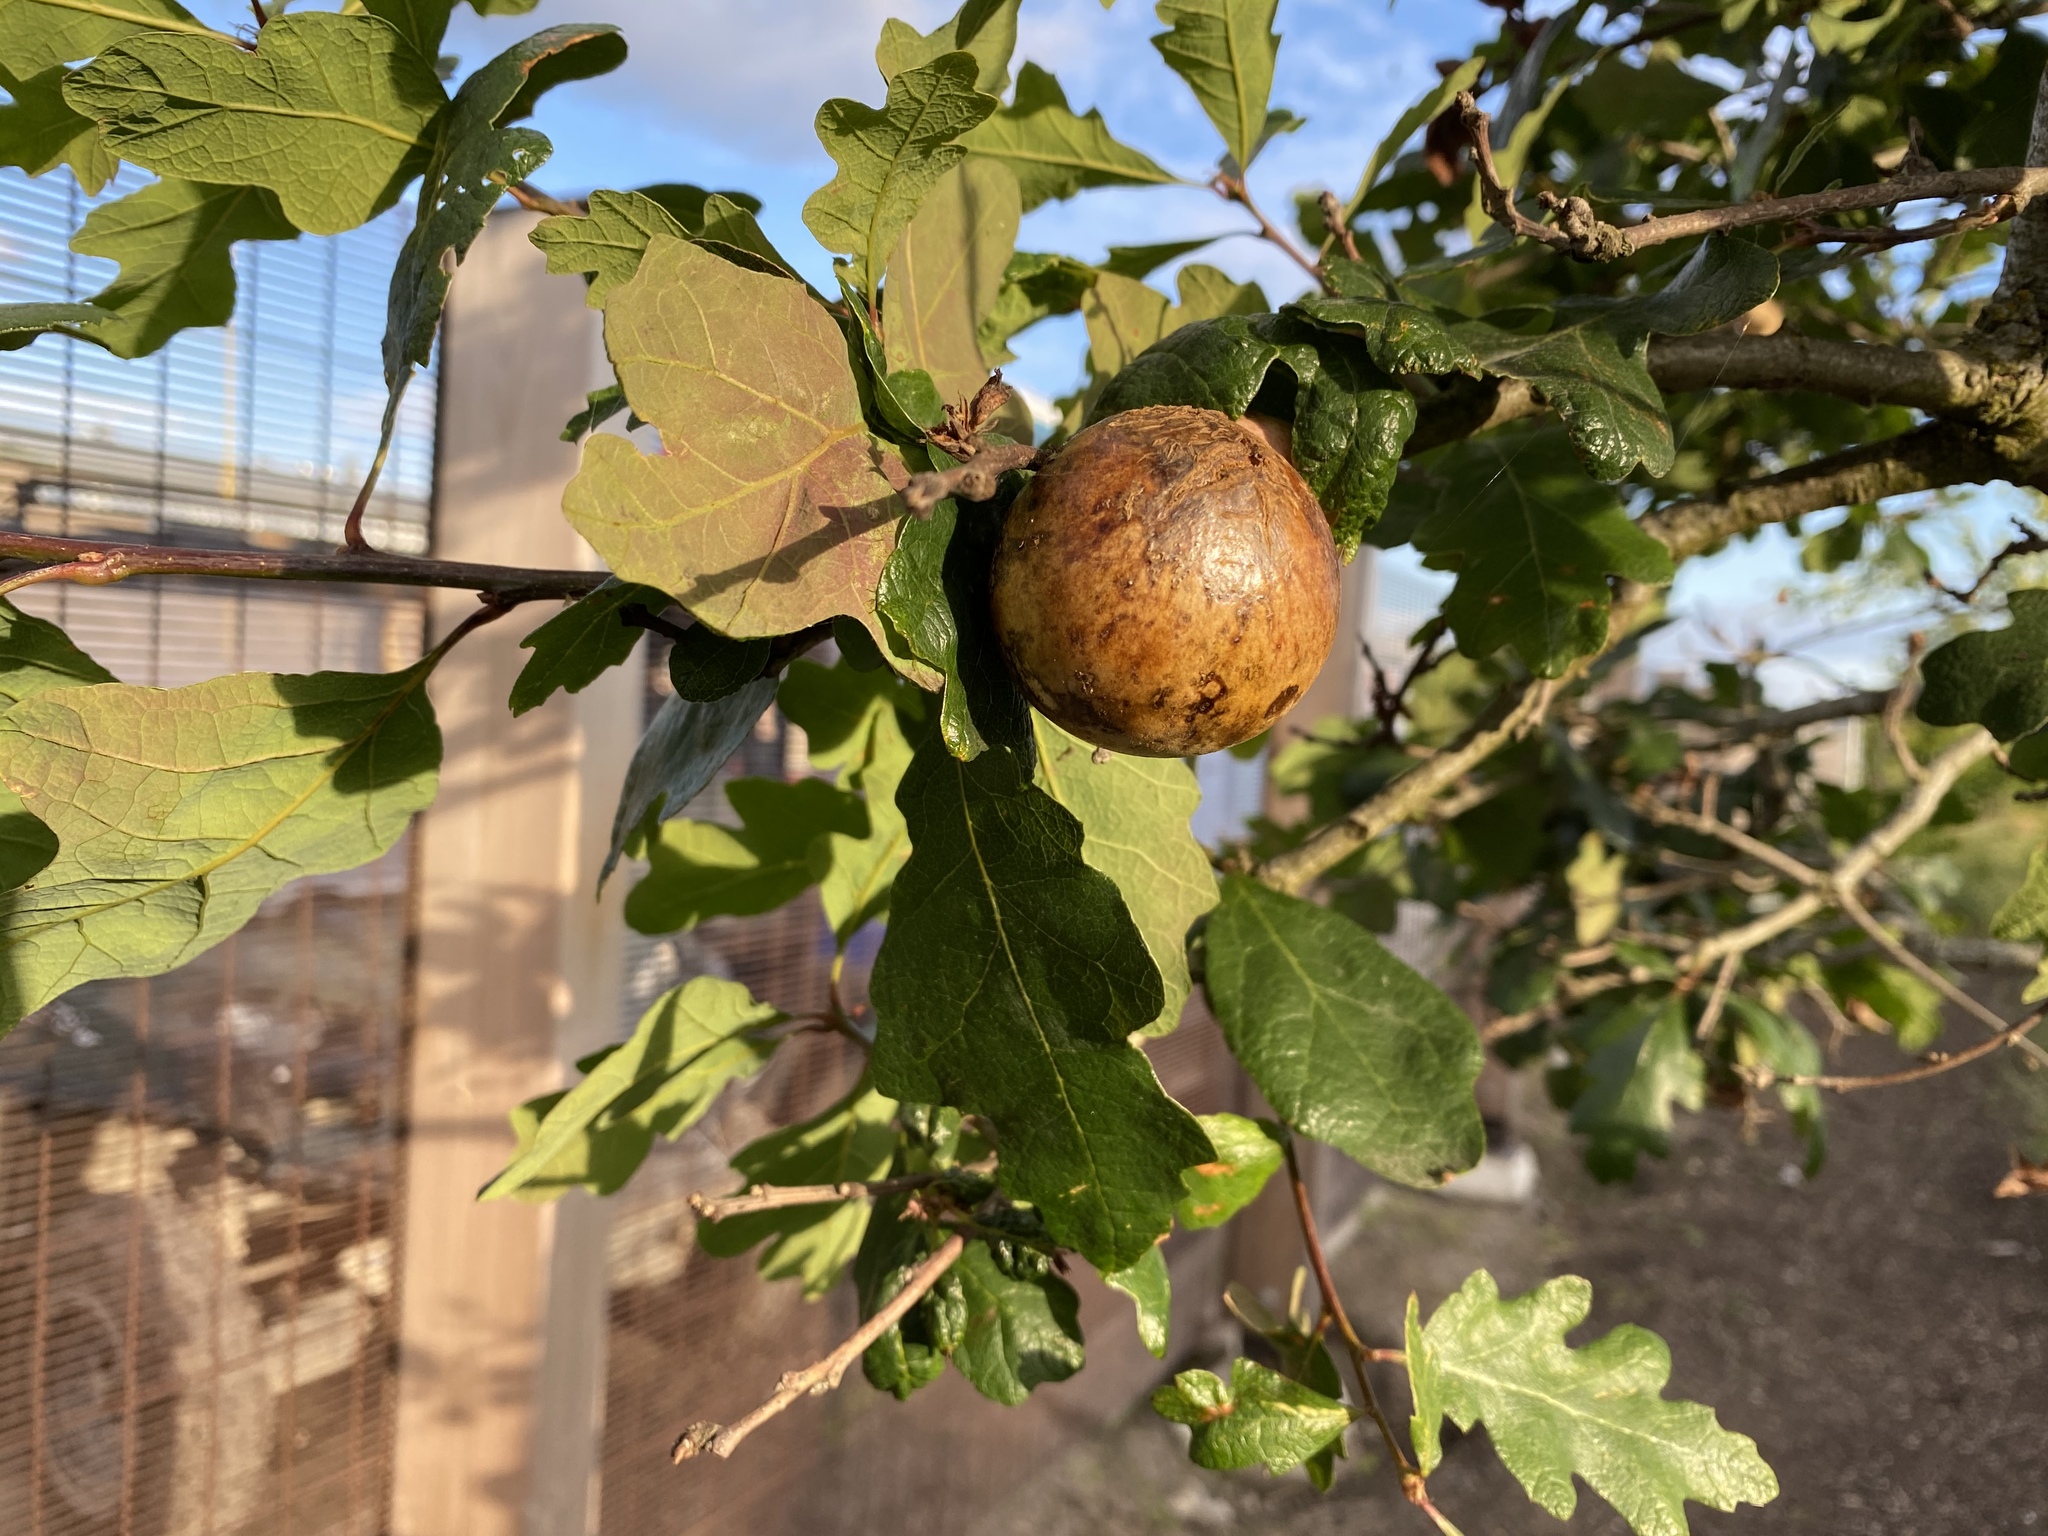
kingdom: Animalia
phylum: Arthropoda
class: Insecta
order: Hymenoptera
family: Cynipidae
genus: Andricus
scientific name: Andricus quercuscalifornicus
